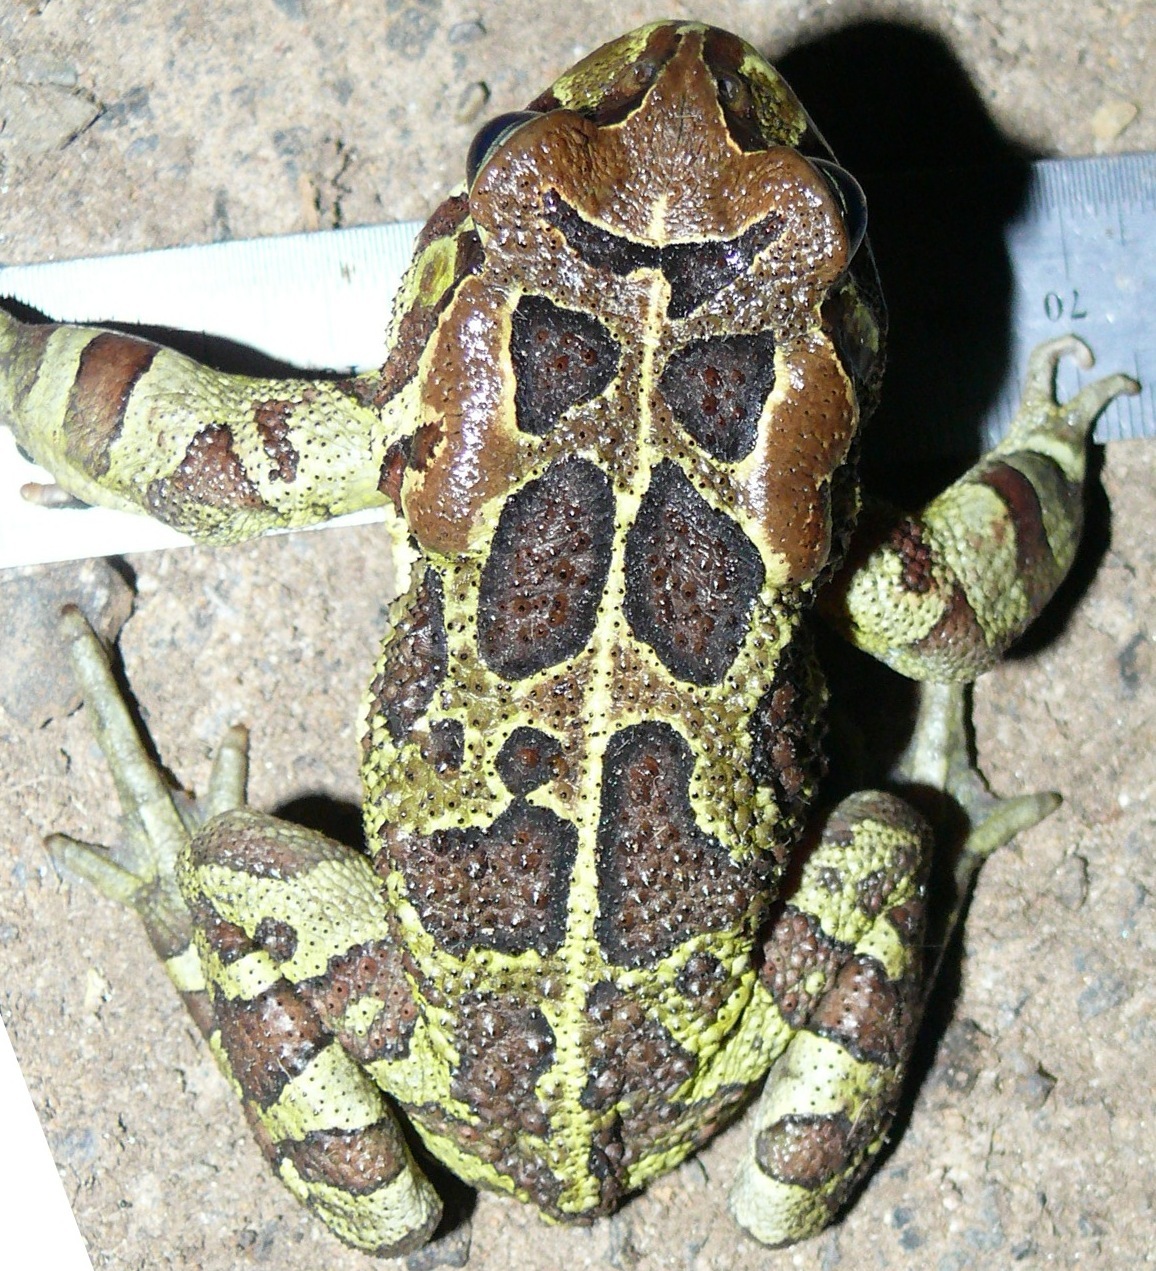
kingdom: Animalia
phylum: Chordata
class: Amphibia
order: Anura
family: Bufonidae
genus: Sclerophrys
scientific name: Sclerophrys pantherina
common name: Panther toad
